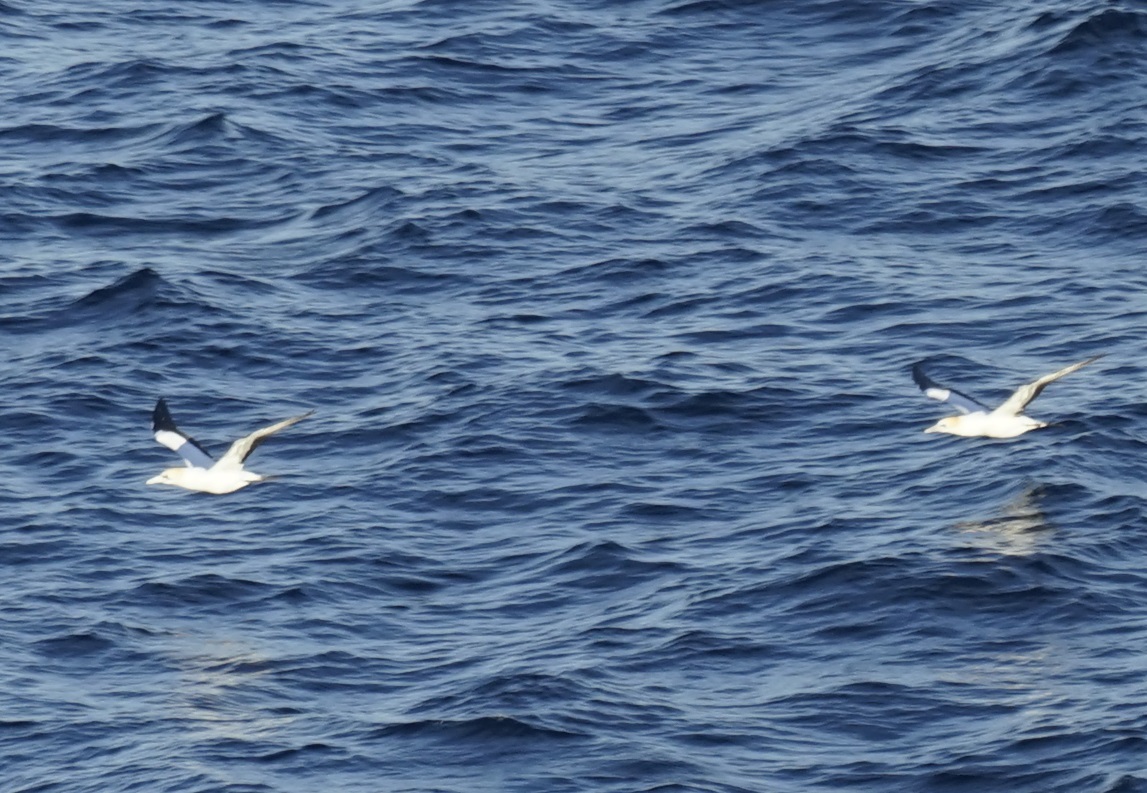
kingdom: Animalia
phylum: Chordata
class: Aves
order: Suliformes
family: Sulidae
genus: Morus
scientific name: Morus serrator
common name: Australasian gannet
